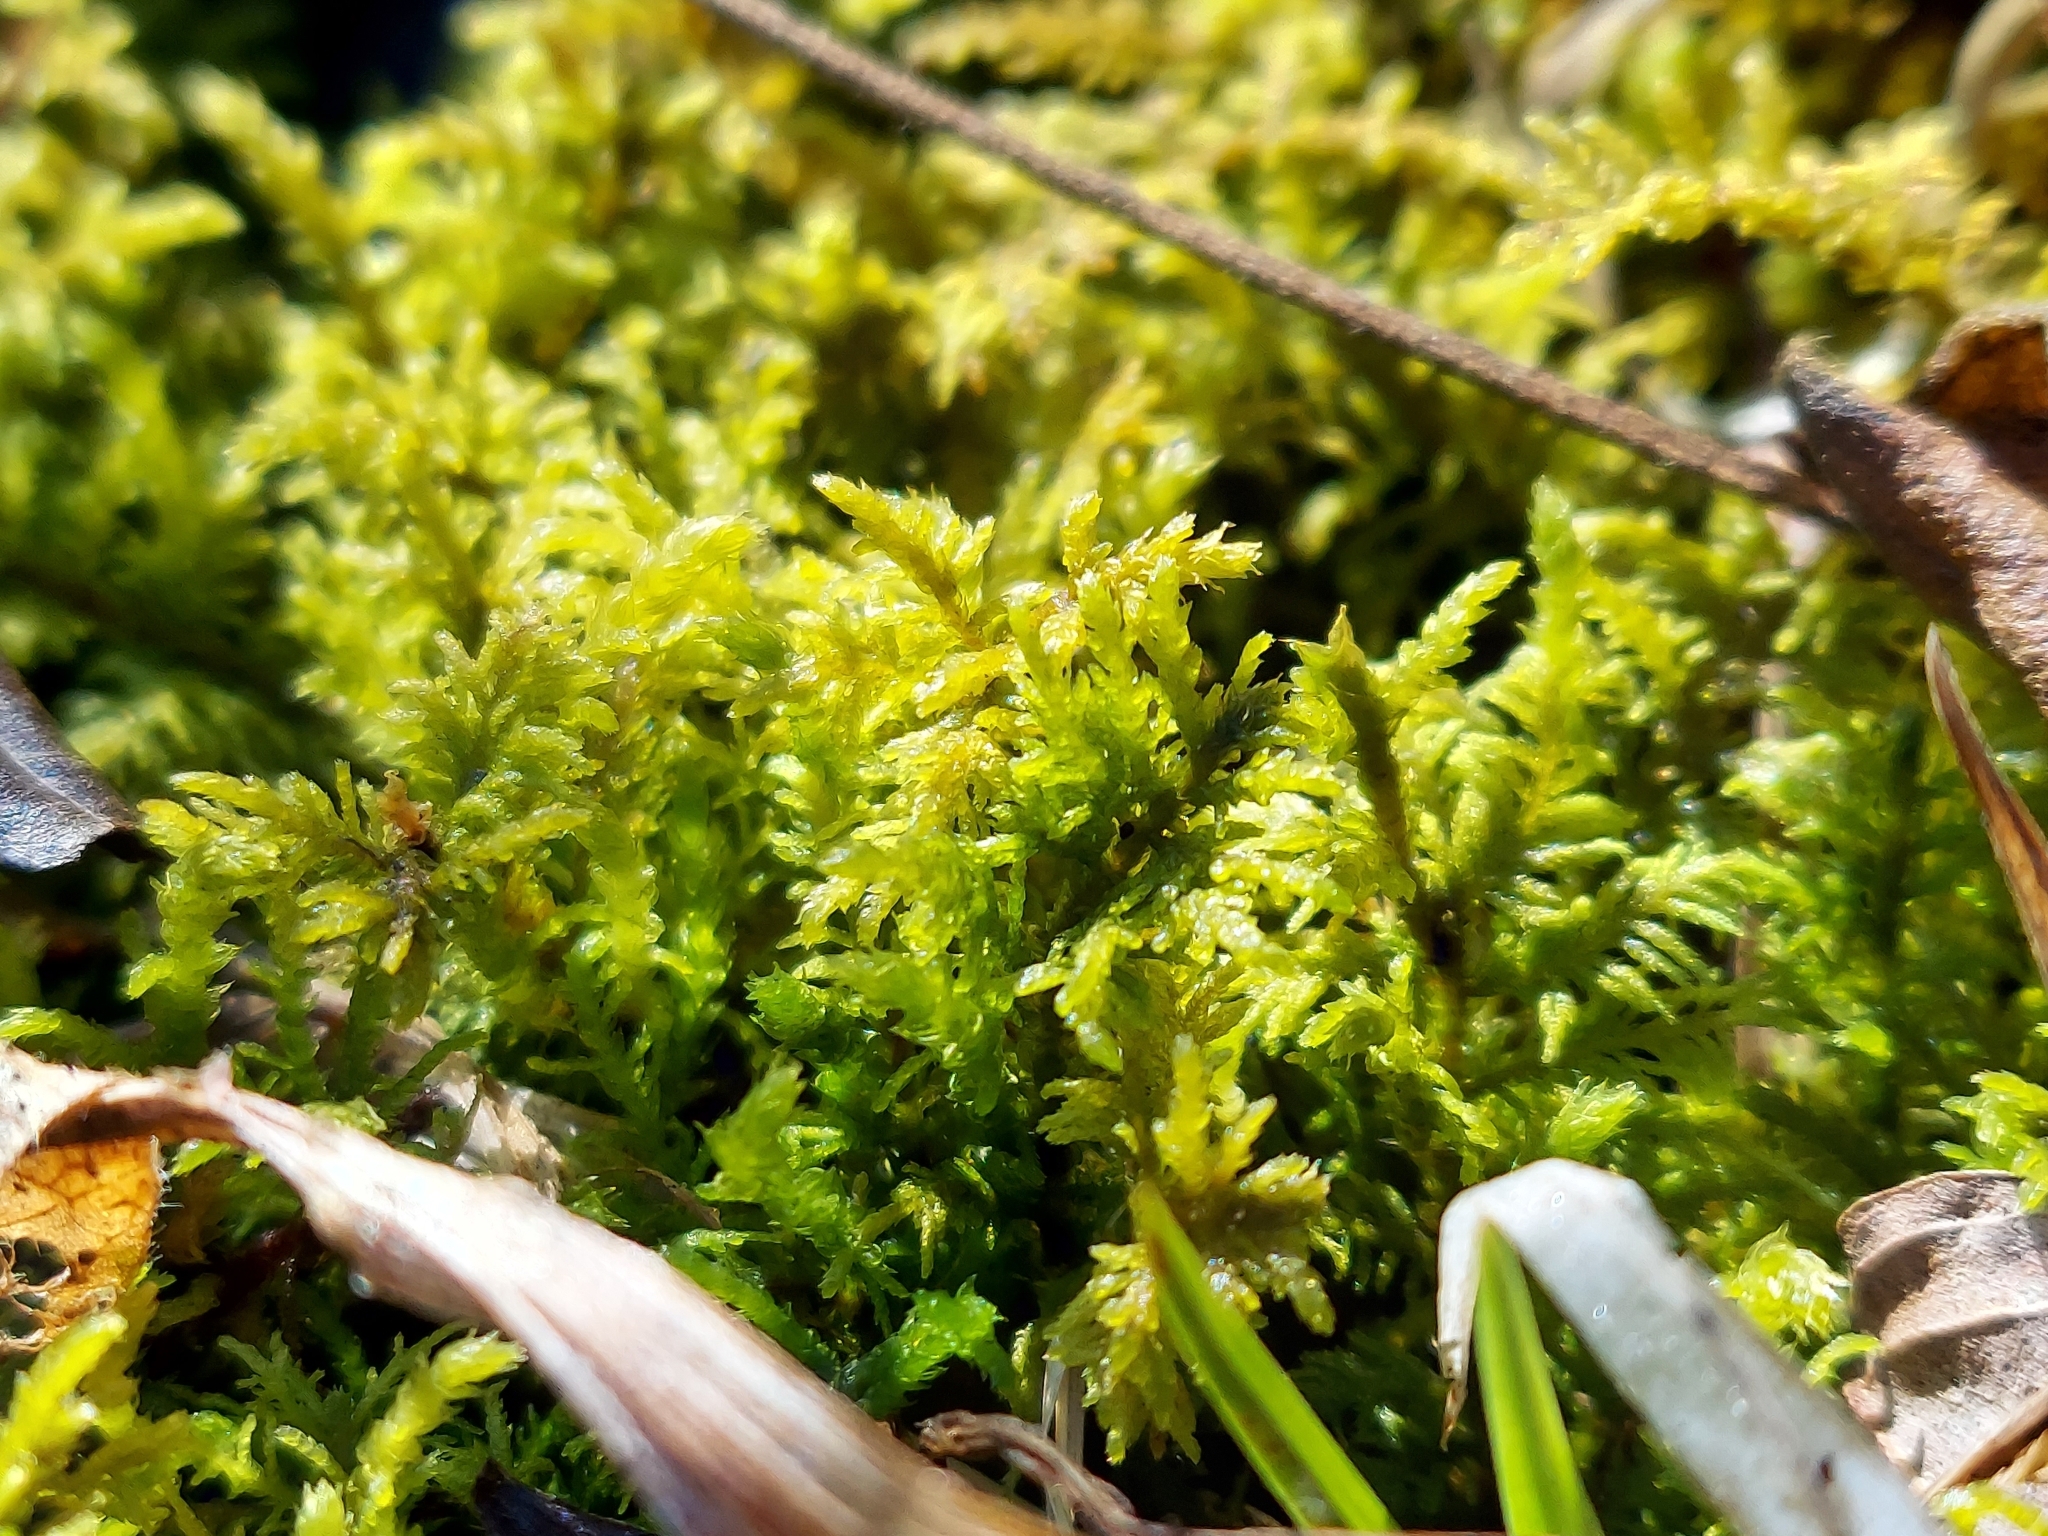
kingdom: Plantae
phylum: Bryophyta
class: Bryopsida
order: Hypnales
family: Thuidiaceae
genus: Thuidium
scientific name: Thuidium delicatulum
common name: Delicate fern moss
